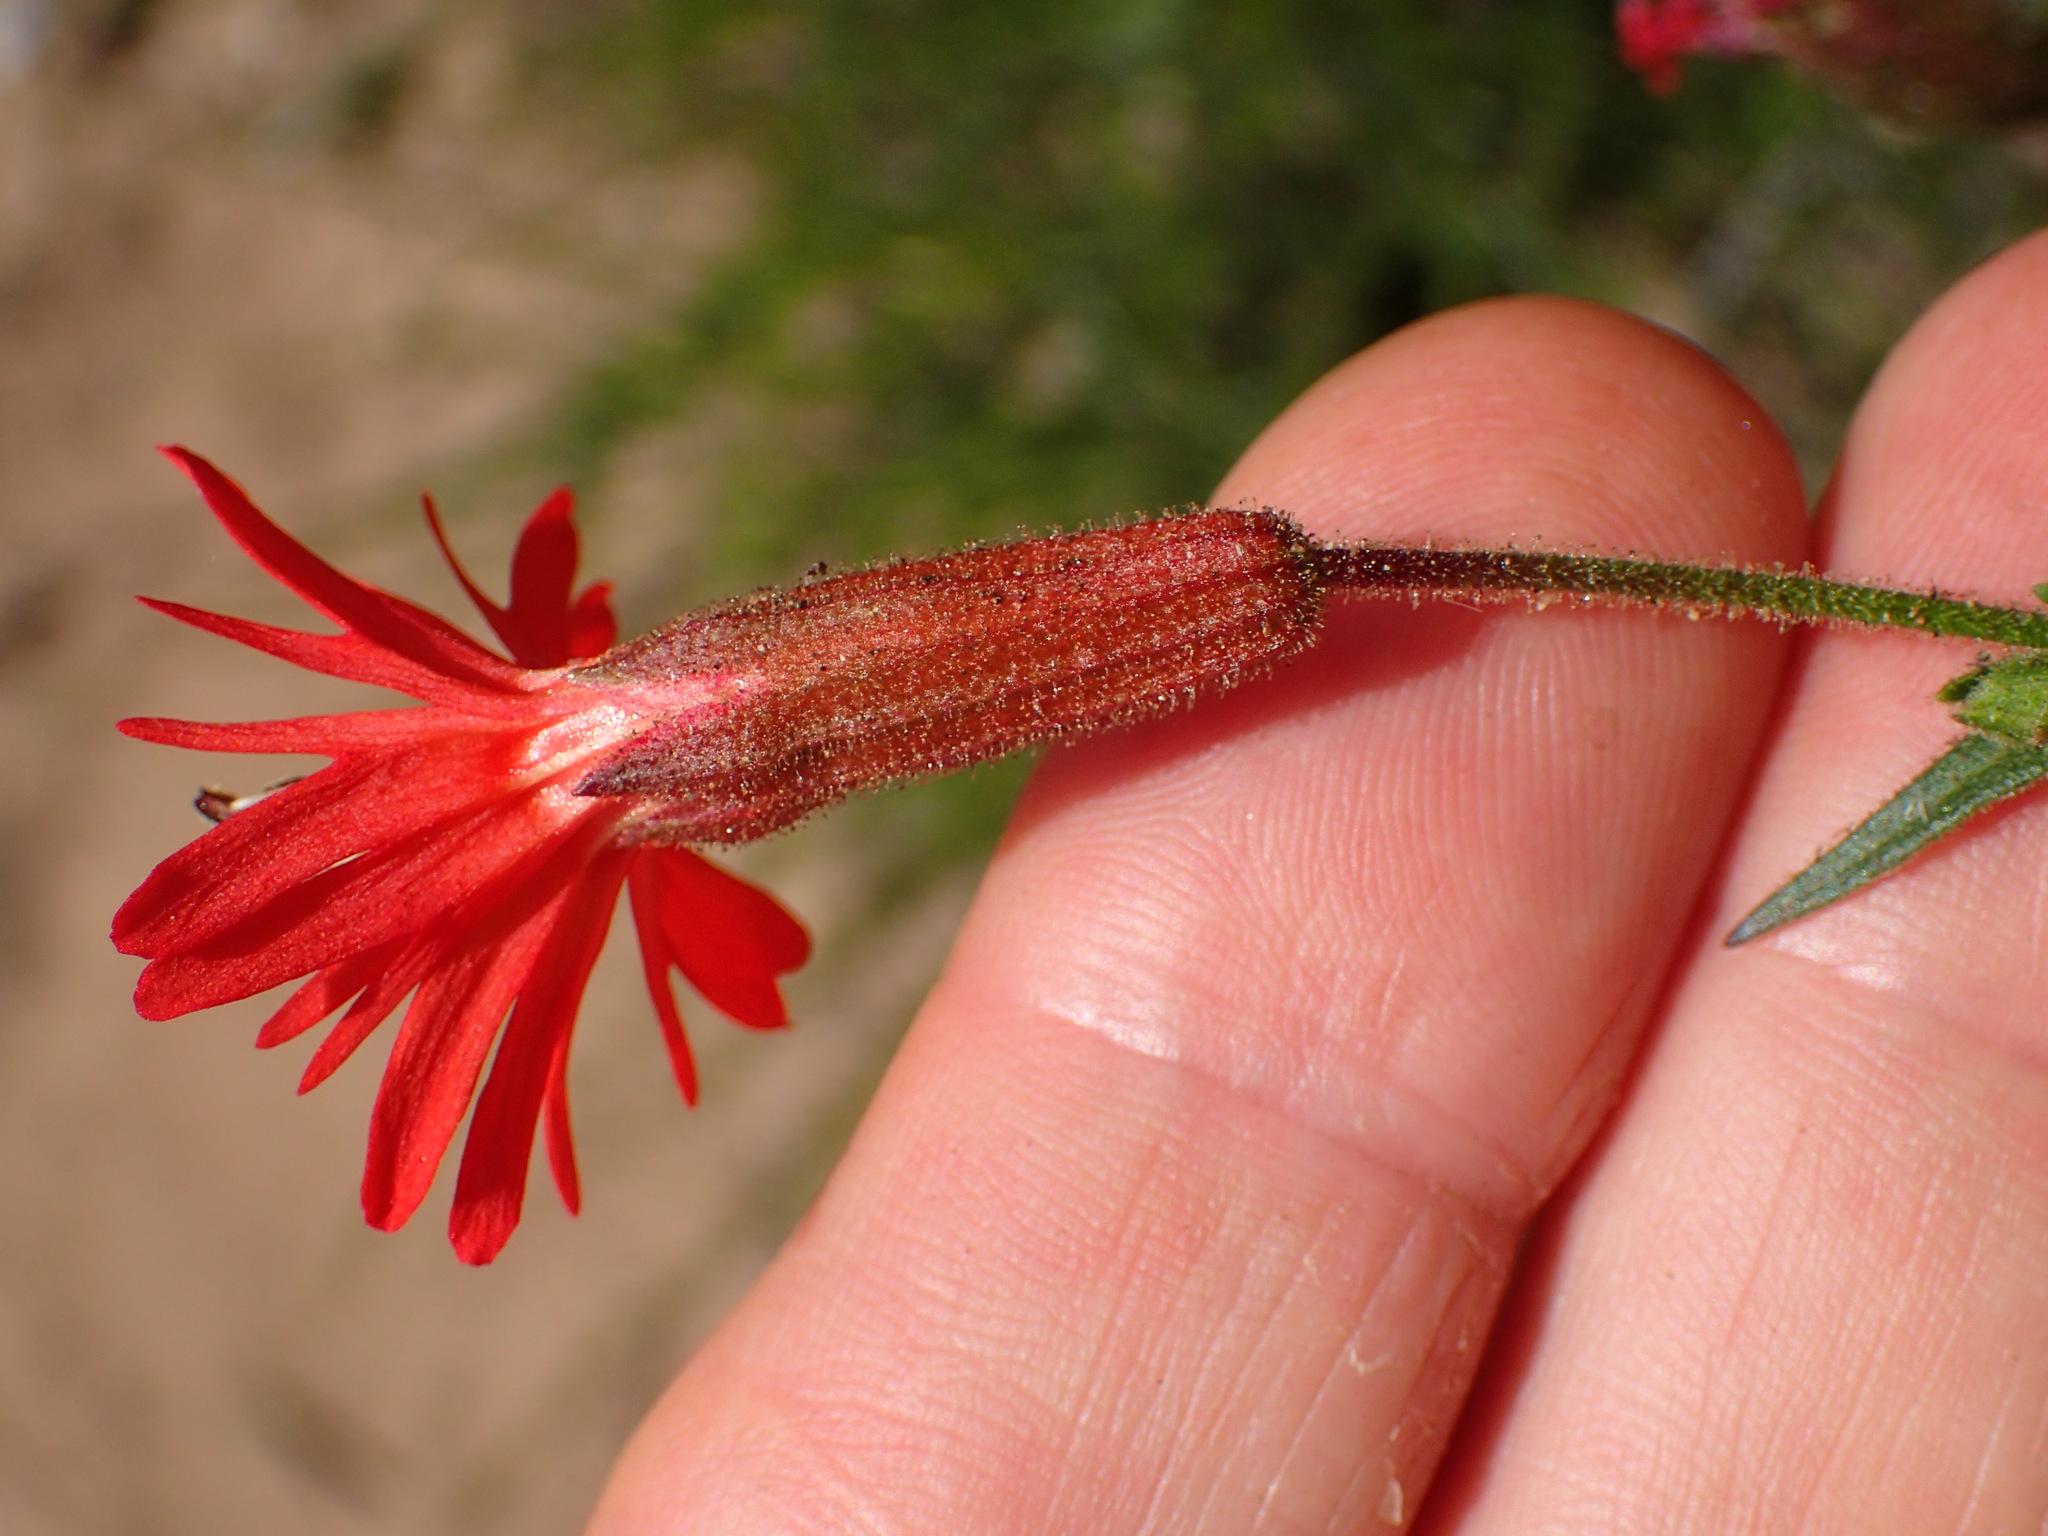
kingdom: Plantae
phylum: Tracheophyta
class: Magnoliopsida
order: Caryophyllales
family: Caryophyllaceae
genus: Silene
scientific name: Silene laciniata
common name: Indian-pink
